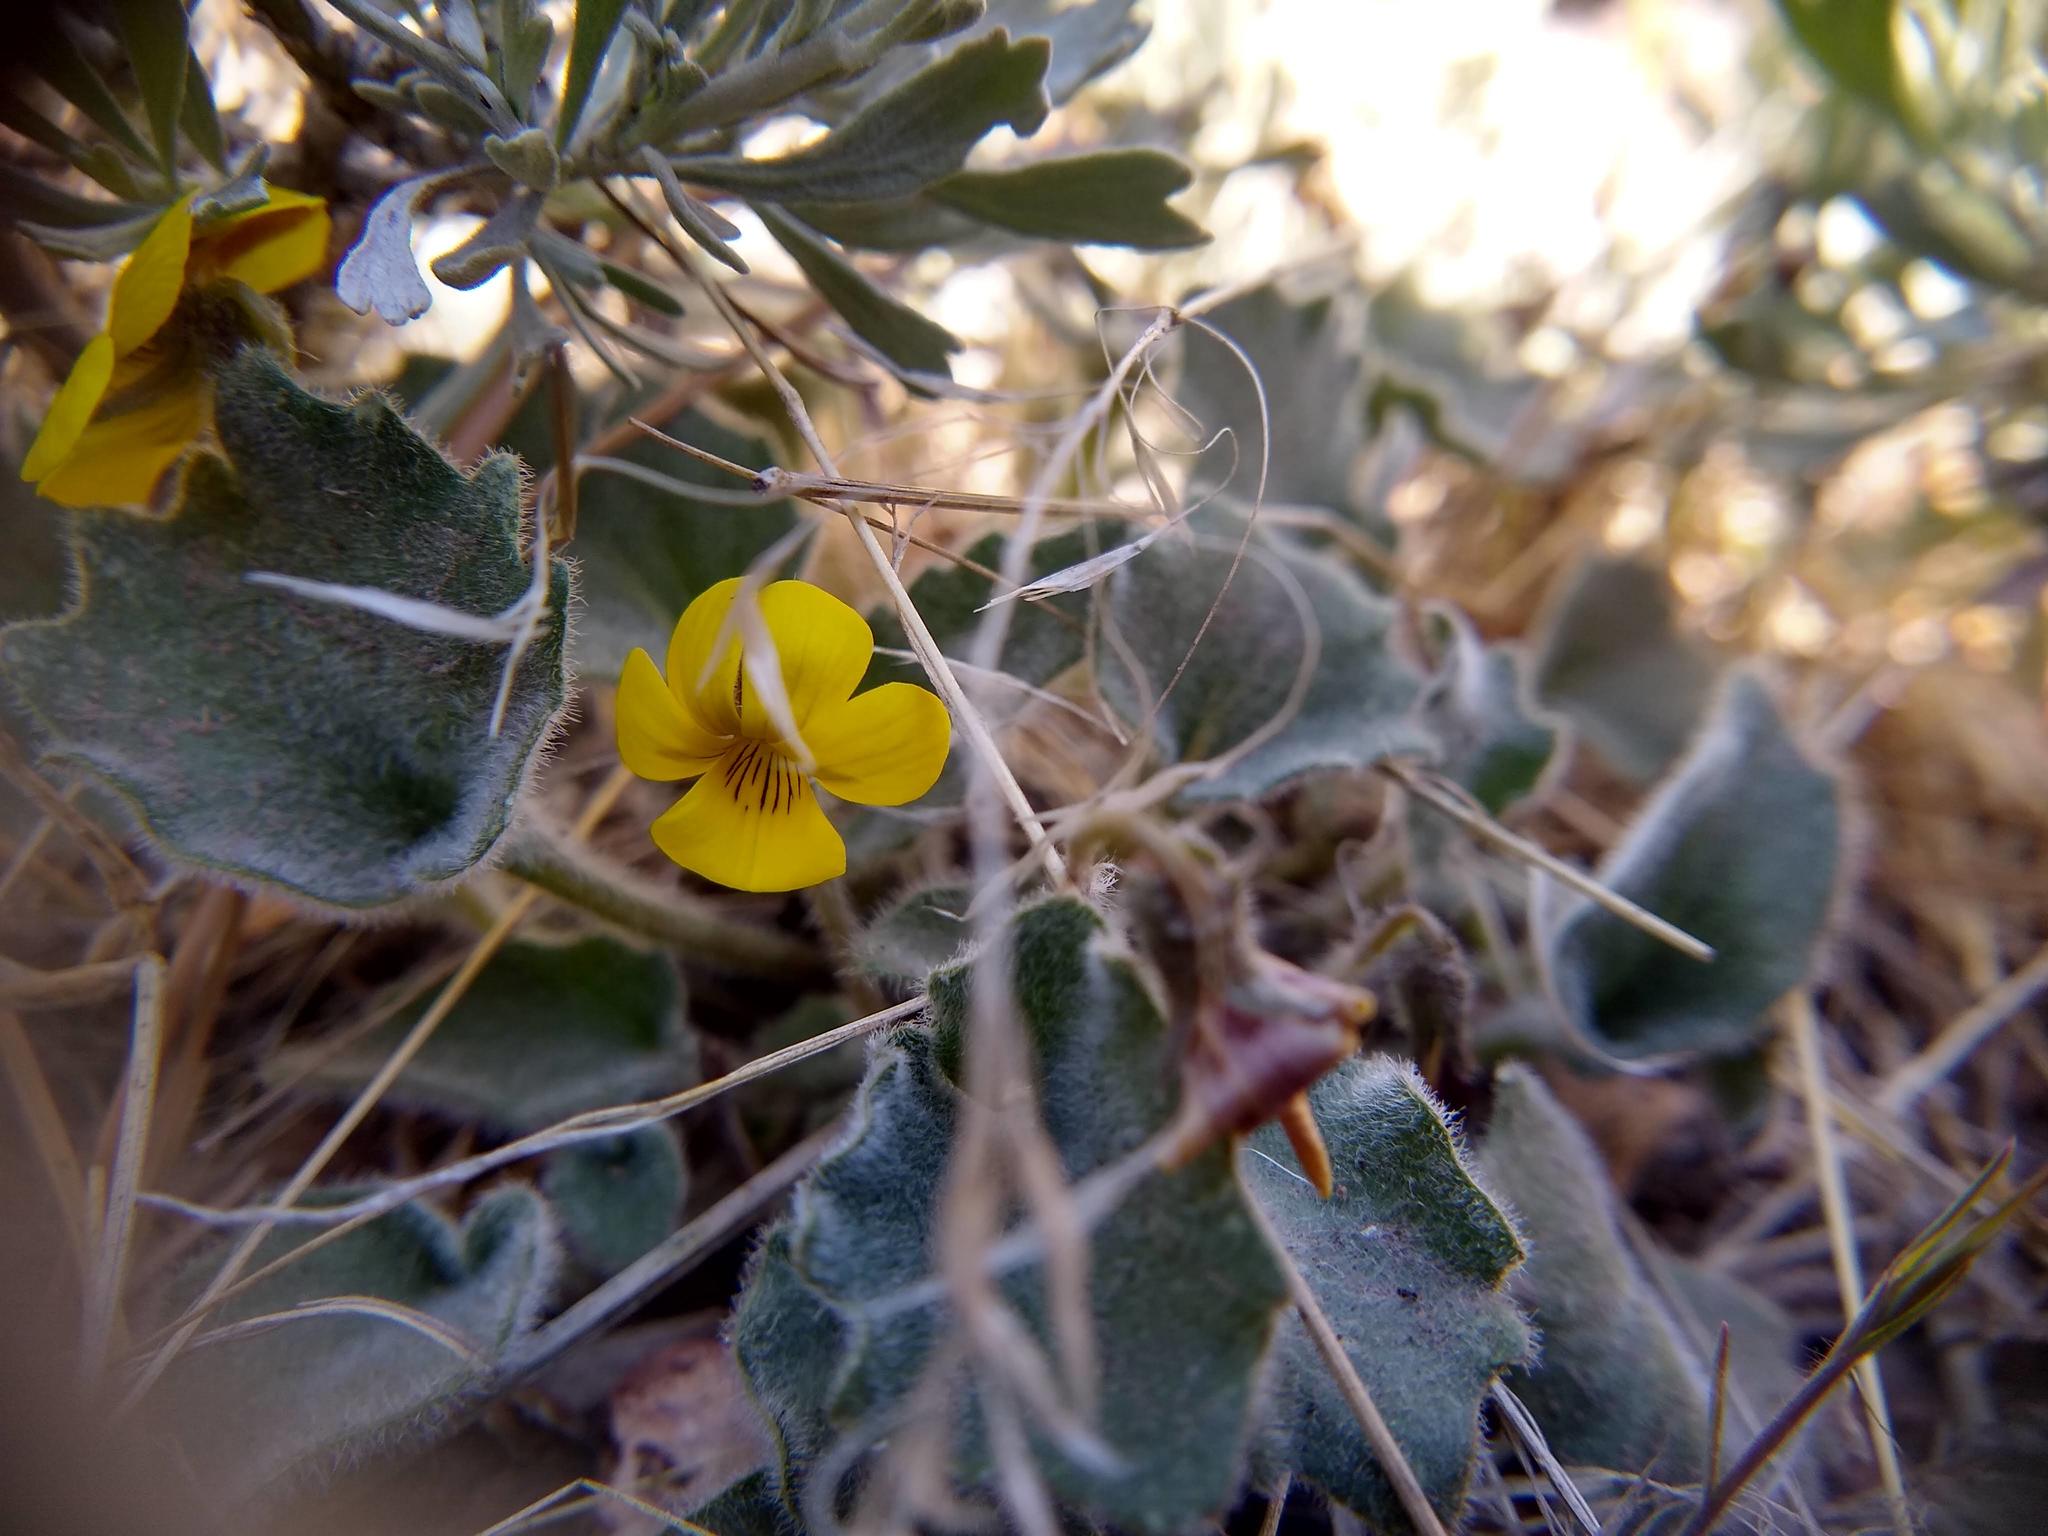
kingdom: Plantae
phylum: Tracheophyta
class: Magnoliopsida
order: Malpighiales
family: Violaceae
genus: Viola
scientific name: Viola purpurea
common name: Pine violet
